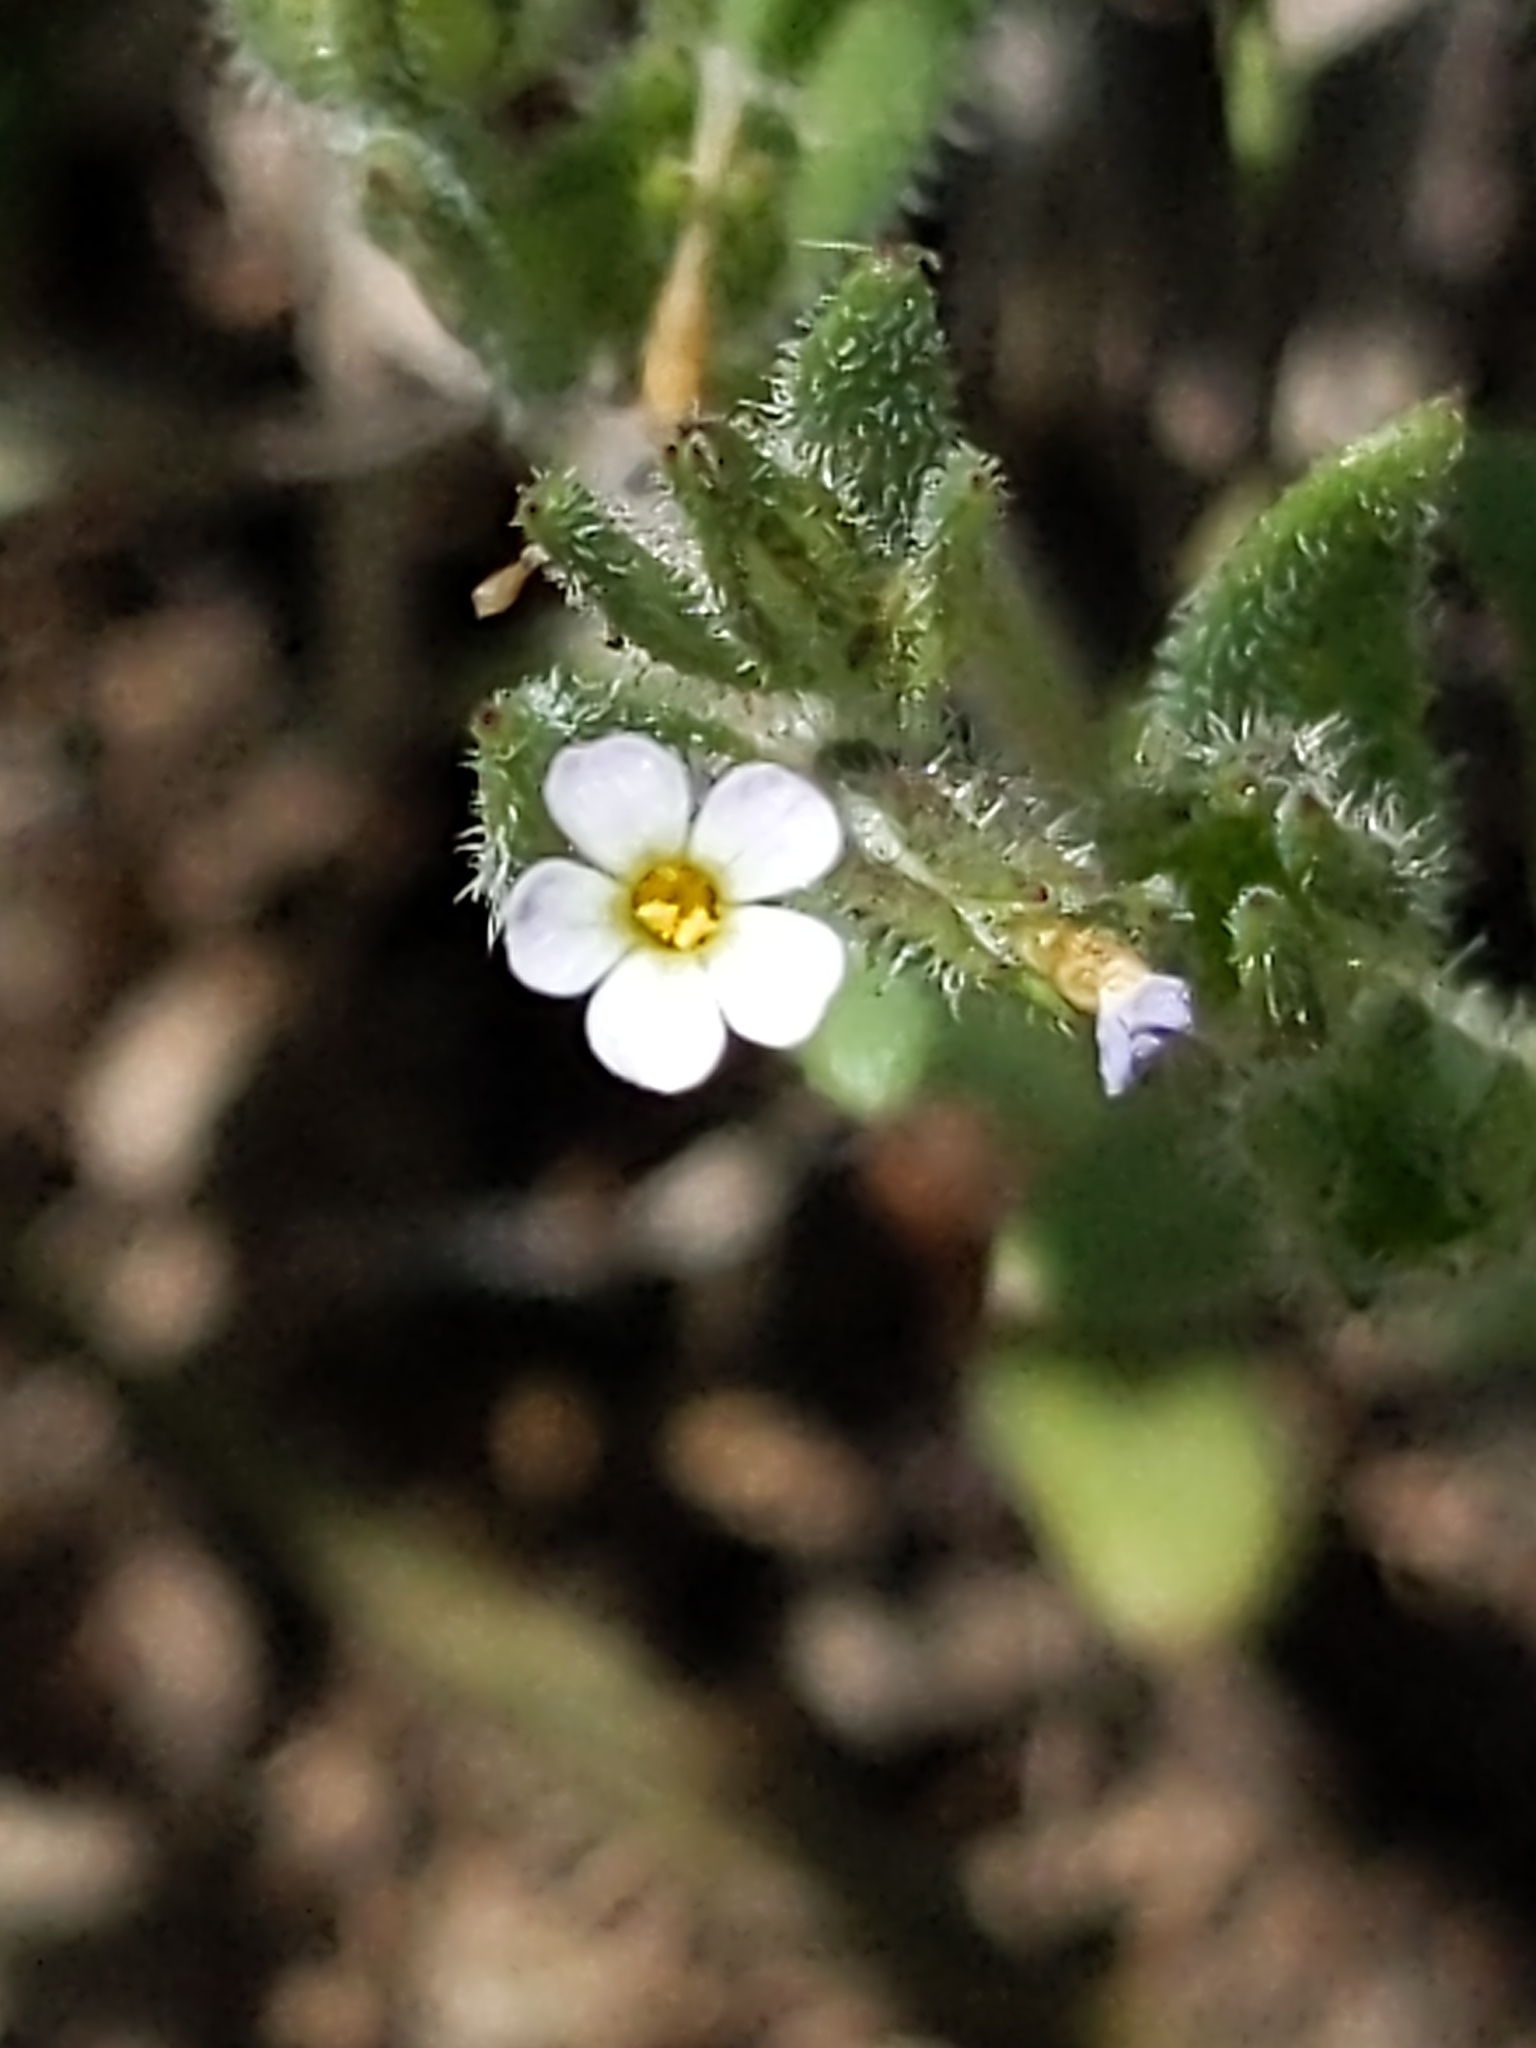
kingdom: Plantae
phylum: Tracheophyta
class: Magnoliopsida
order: Ericales
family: Polemoniaceae
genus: Phlox
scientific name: Phlox gracilis
